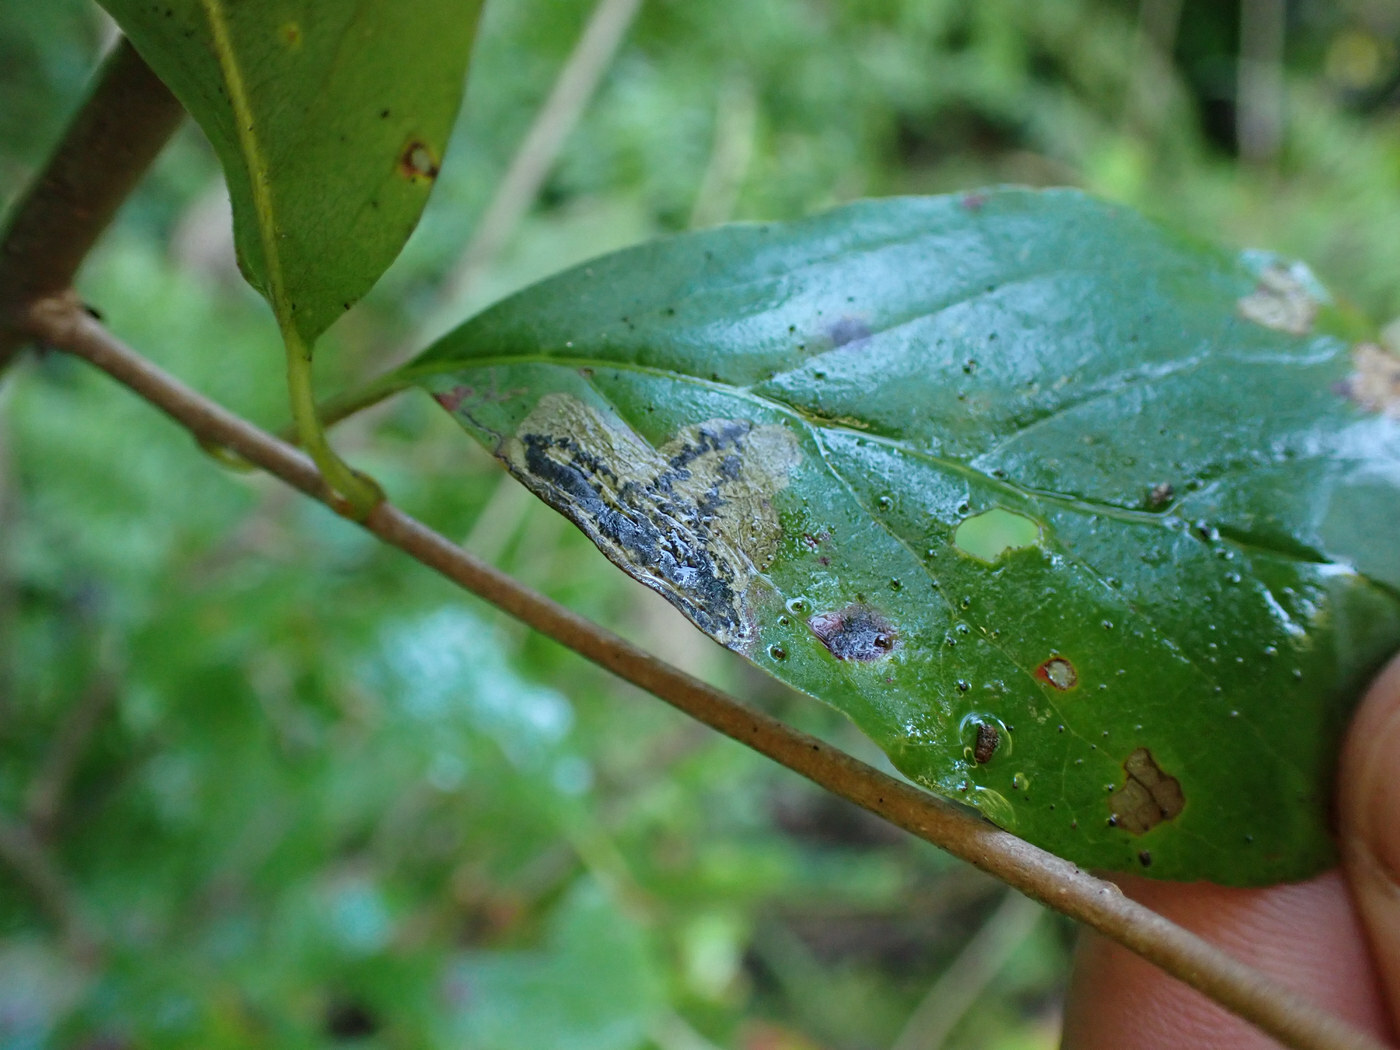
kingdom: Animalia
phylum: Arthropoda
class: Insecta
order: Lepidoptera
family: Nepticulidae
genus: Ectoedemia
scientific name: Ectoedemia nyssaefoliella
